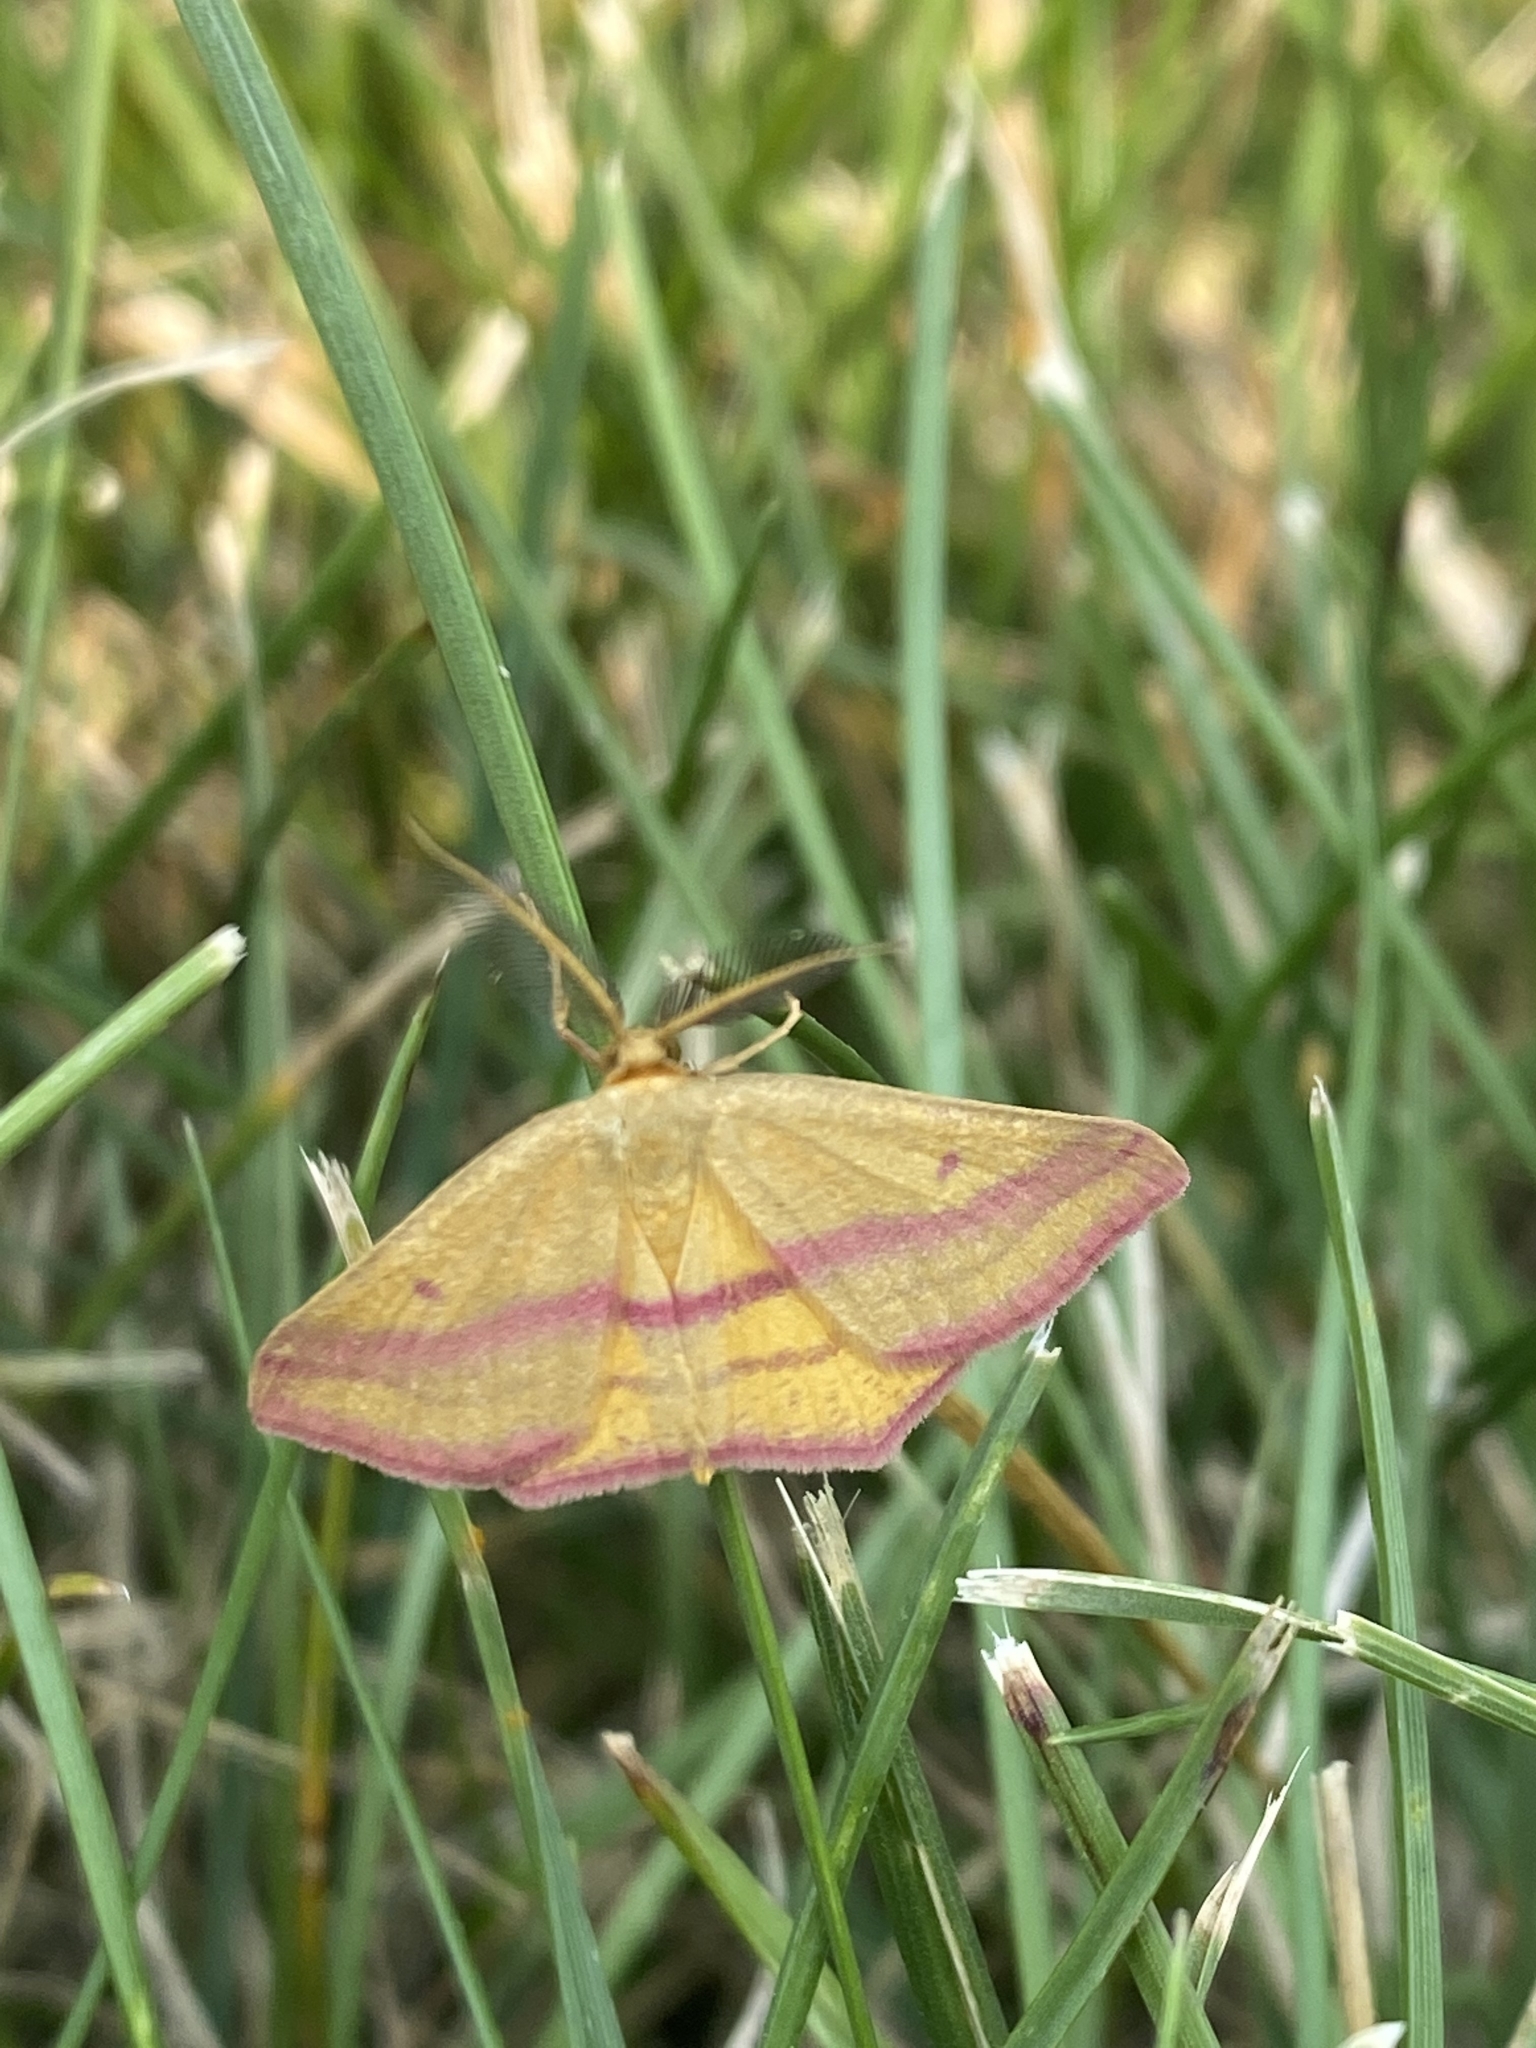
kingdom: Animalia
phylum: Arthropoda
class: Insecta
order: Lepidoptera
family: Geometridae
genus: Haematopis
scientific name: Haematopis grataria
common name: Chickweed geometer
